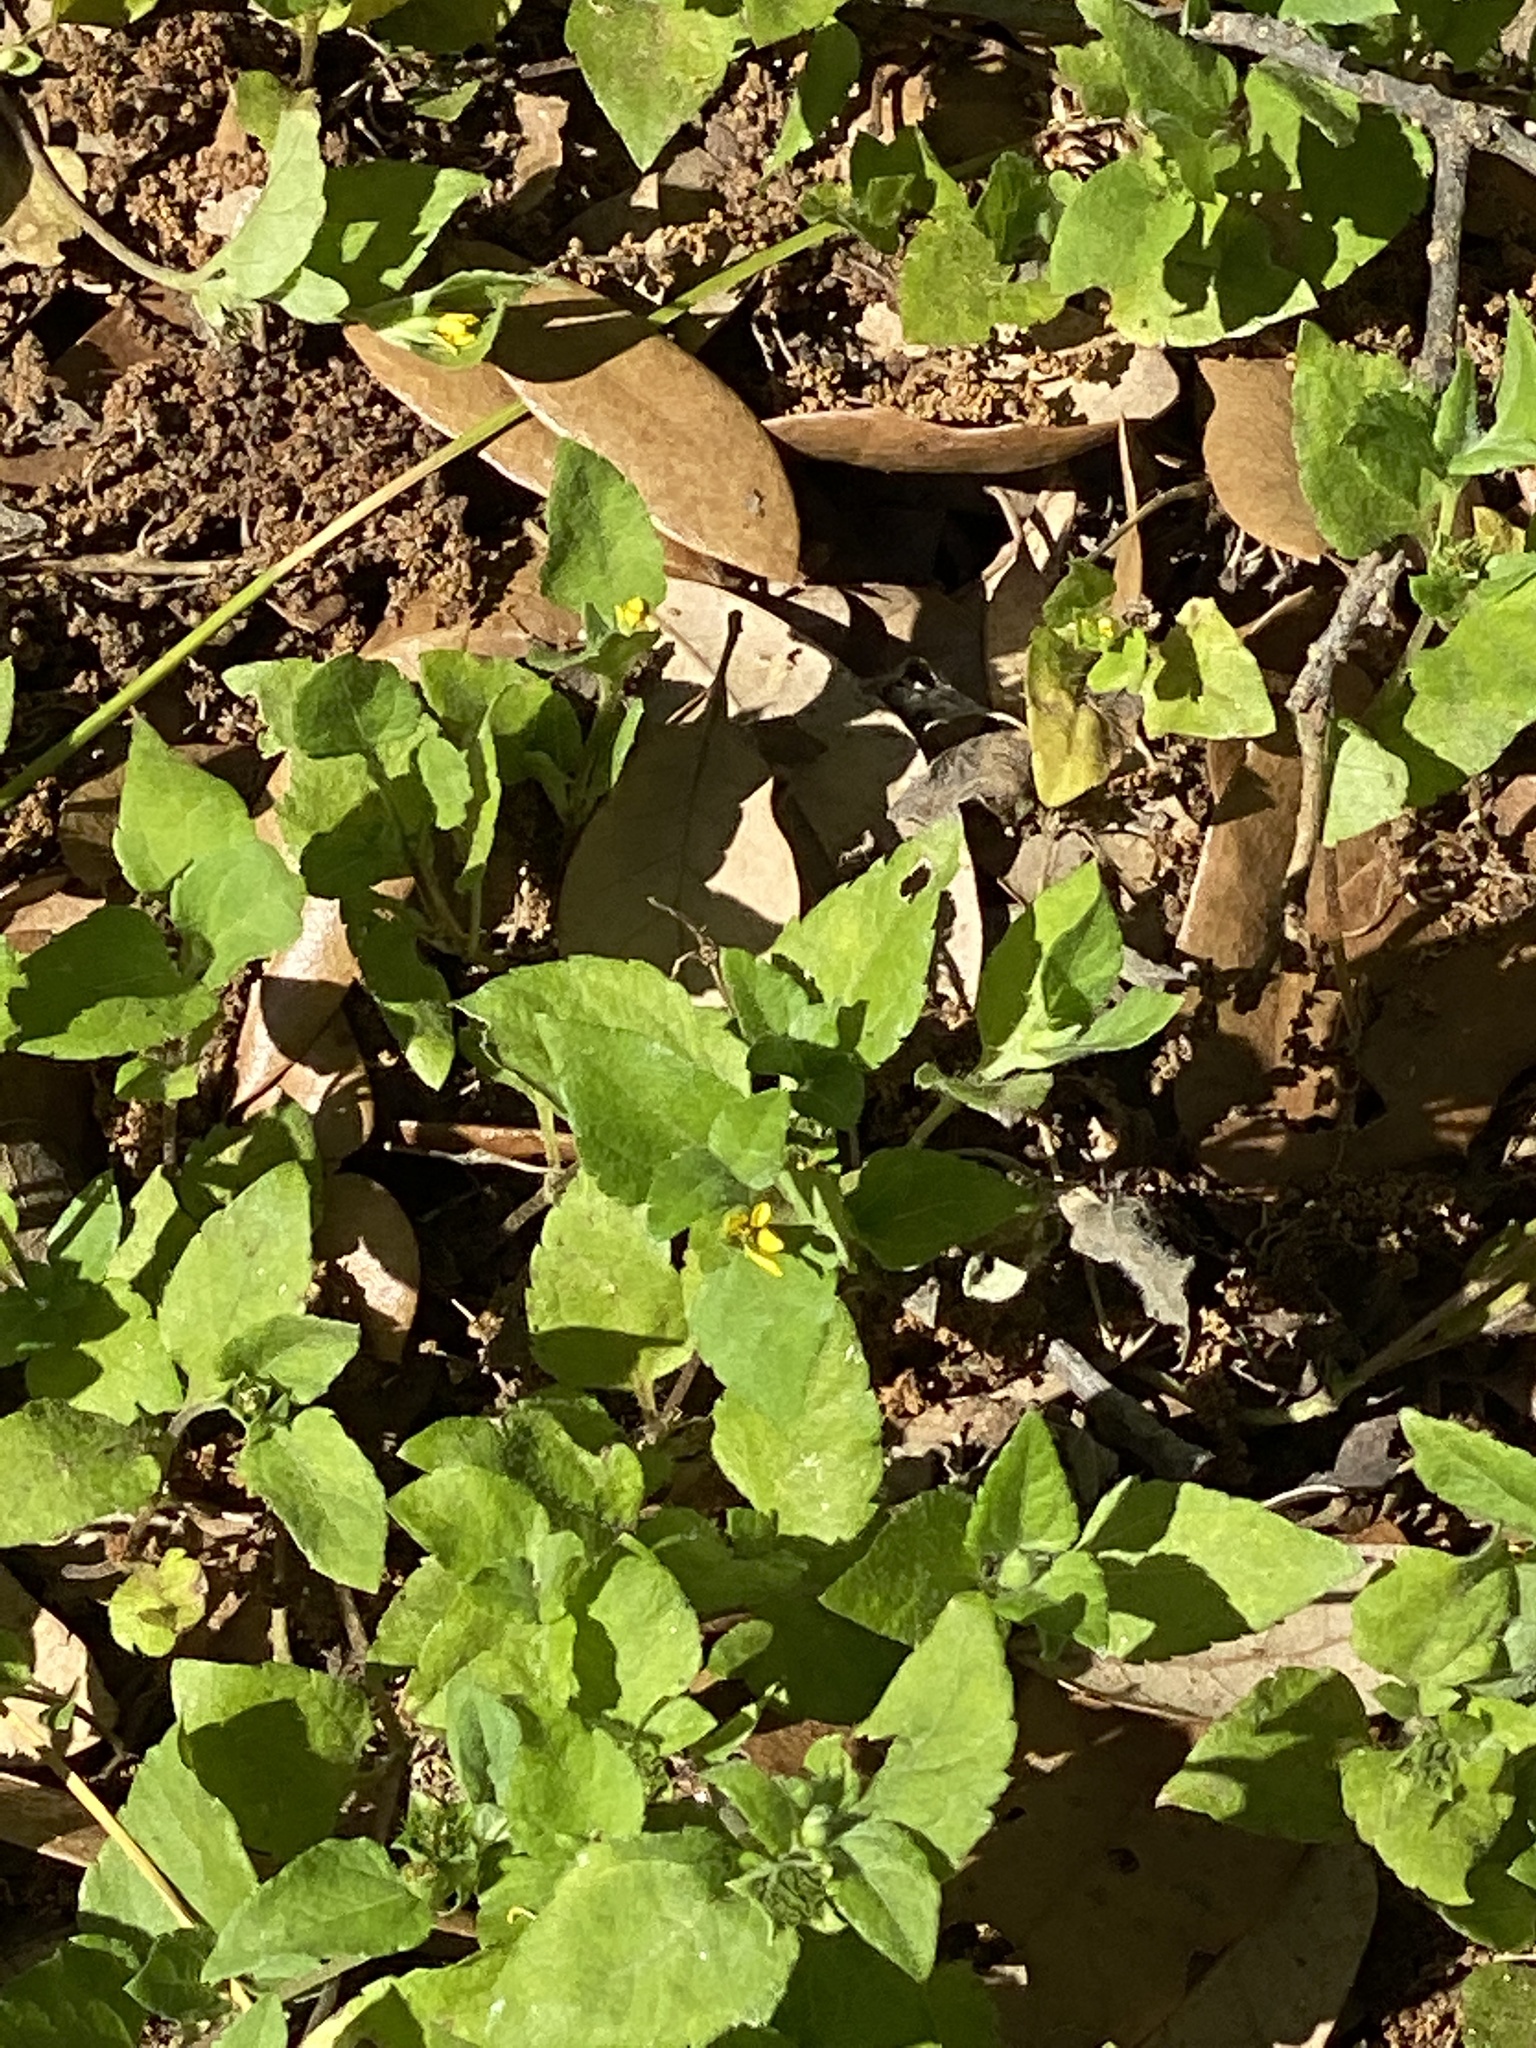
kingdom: Plantae
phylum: Tracheophyta
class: Magnoliopsida
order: Asterales
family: Asteraceae
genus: Calyptocarpus
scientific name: Calyptocarpus vialis
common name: Straggler daisy
